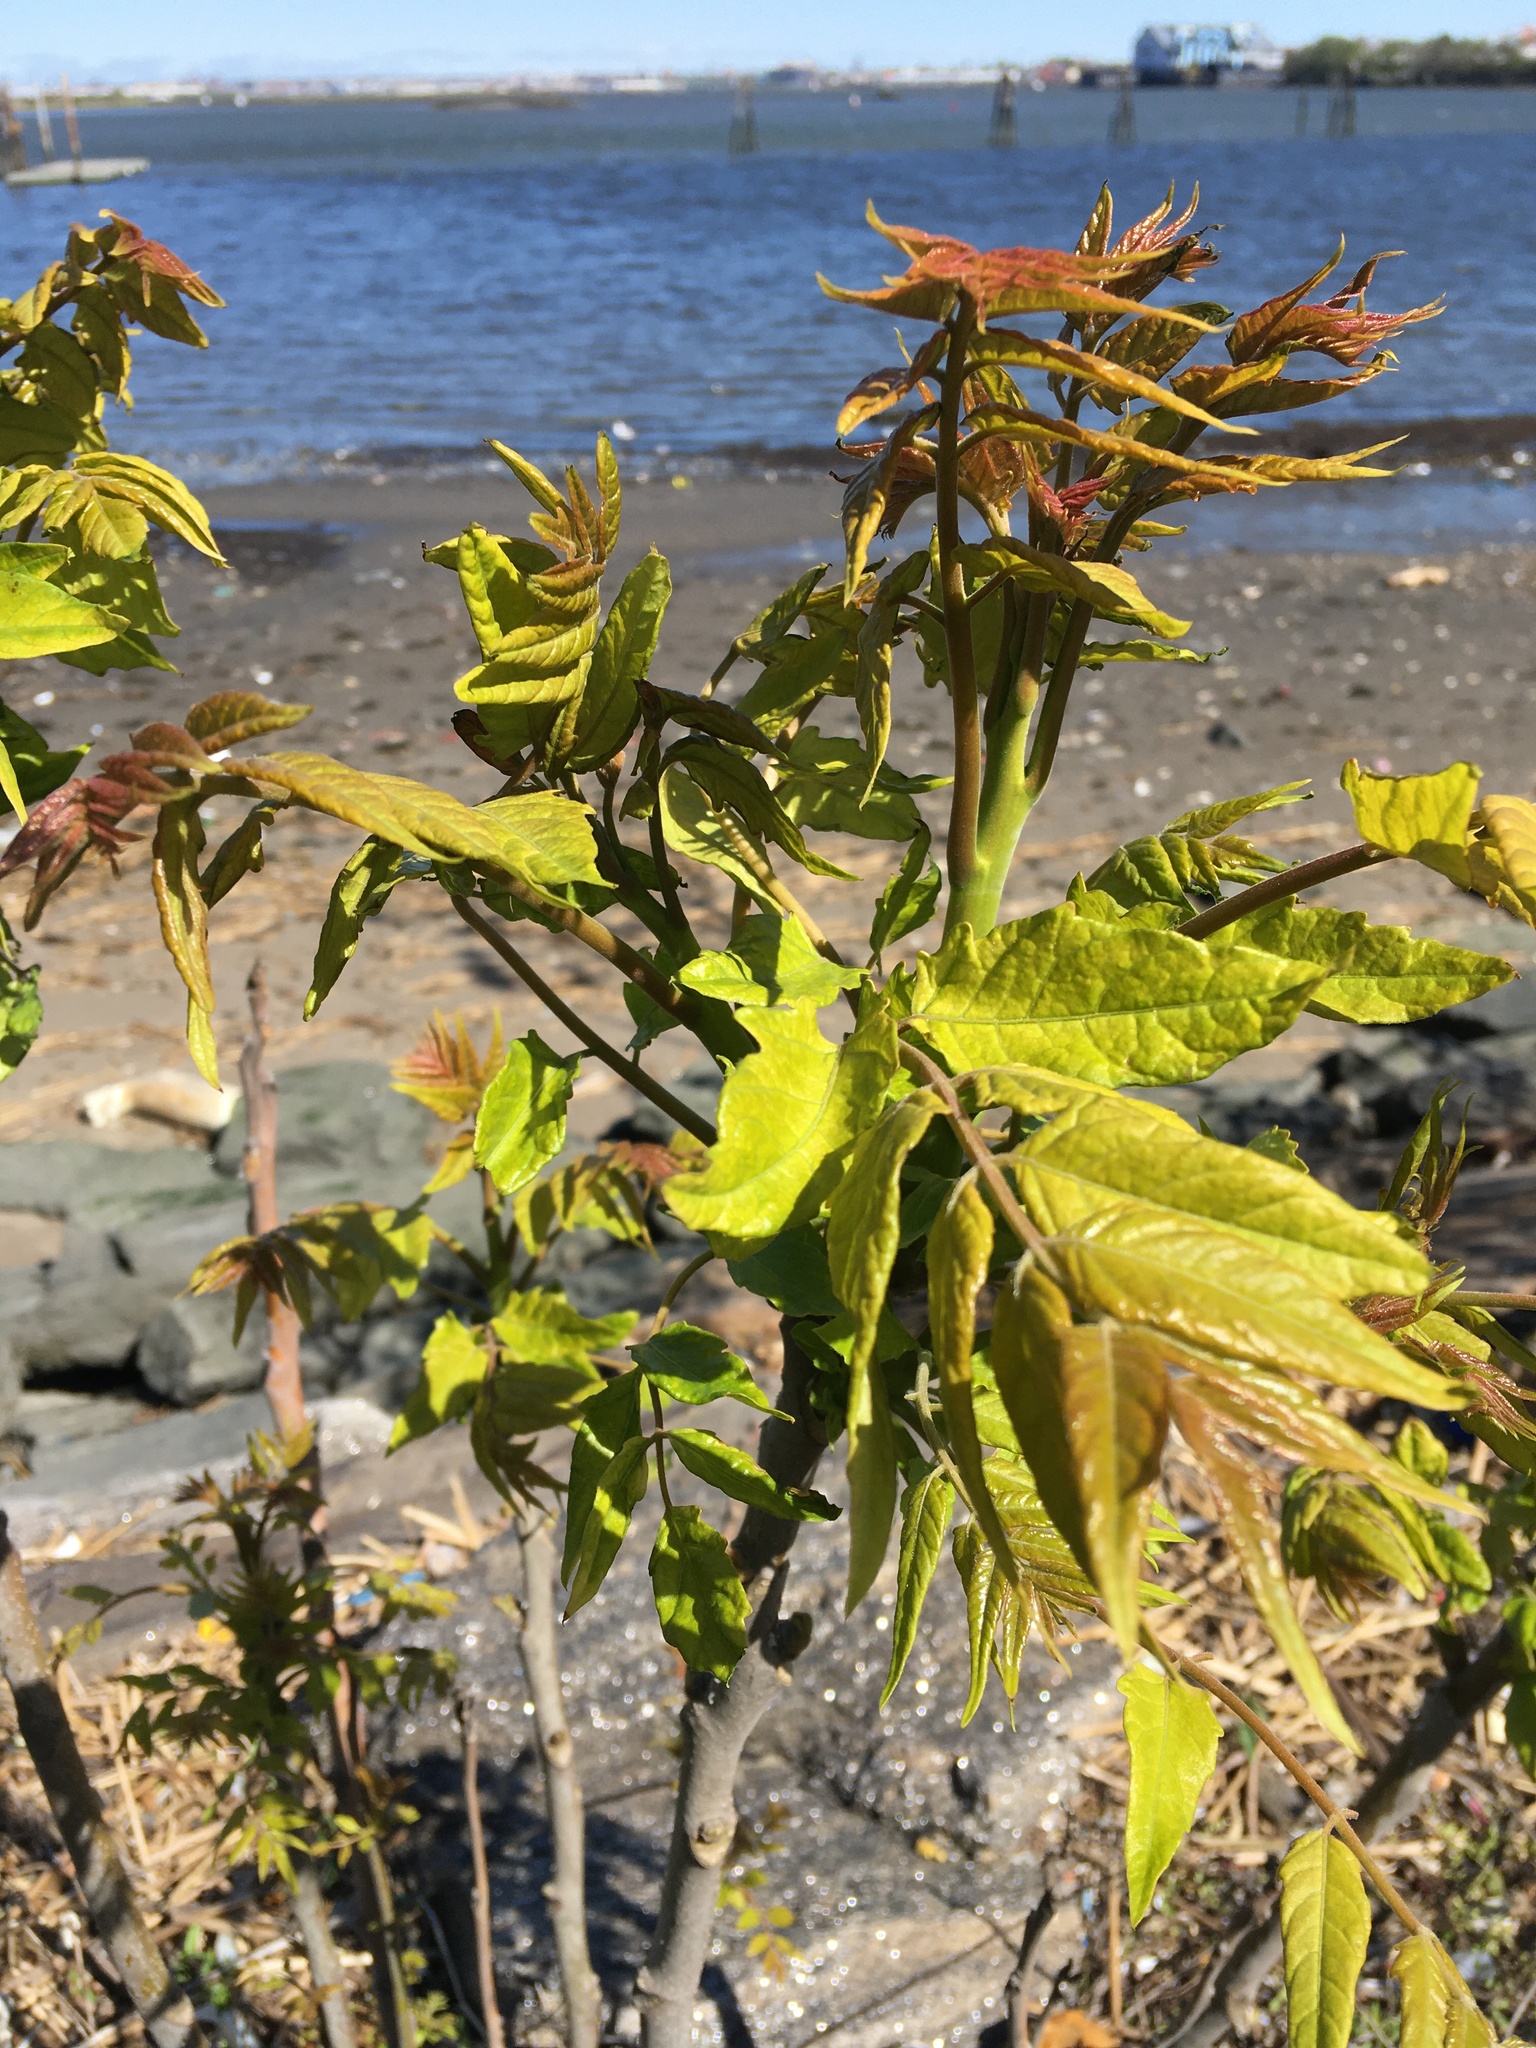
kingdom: Plantae
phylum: Tracheophyta
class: Magnoliopsida
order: Sapindales
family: Simaroubaceae
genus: Ailanthus
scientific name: Ailanthus altissima
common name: Tree-of-heaven
